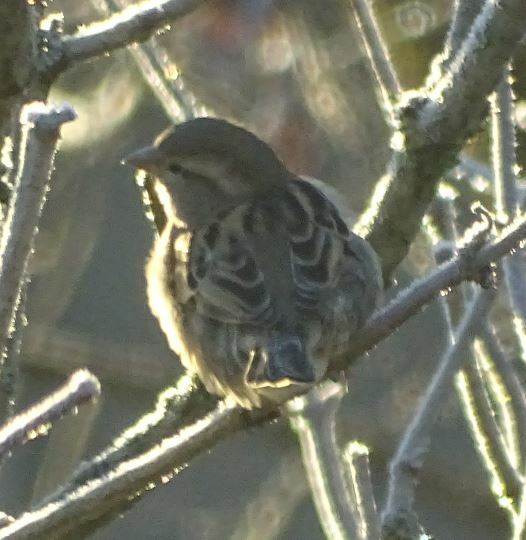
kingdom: Animalia
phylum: Chordata
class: Aves
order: Passeriformes
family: Passeridae
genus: Passer
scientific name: Passer domesticus
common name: House sparrow
